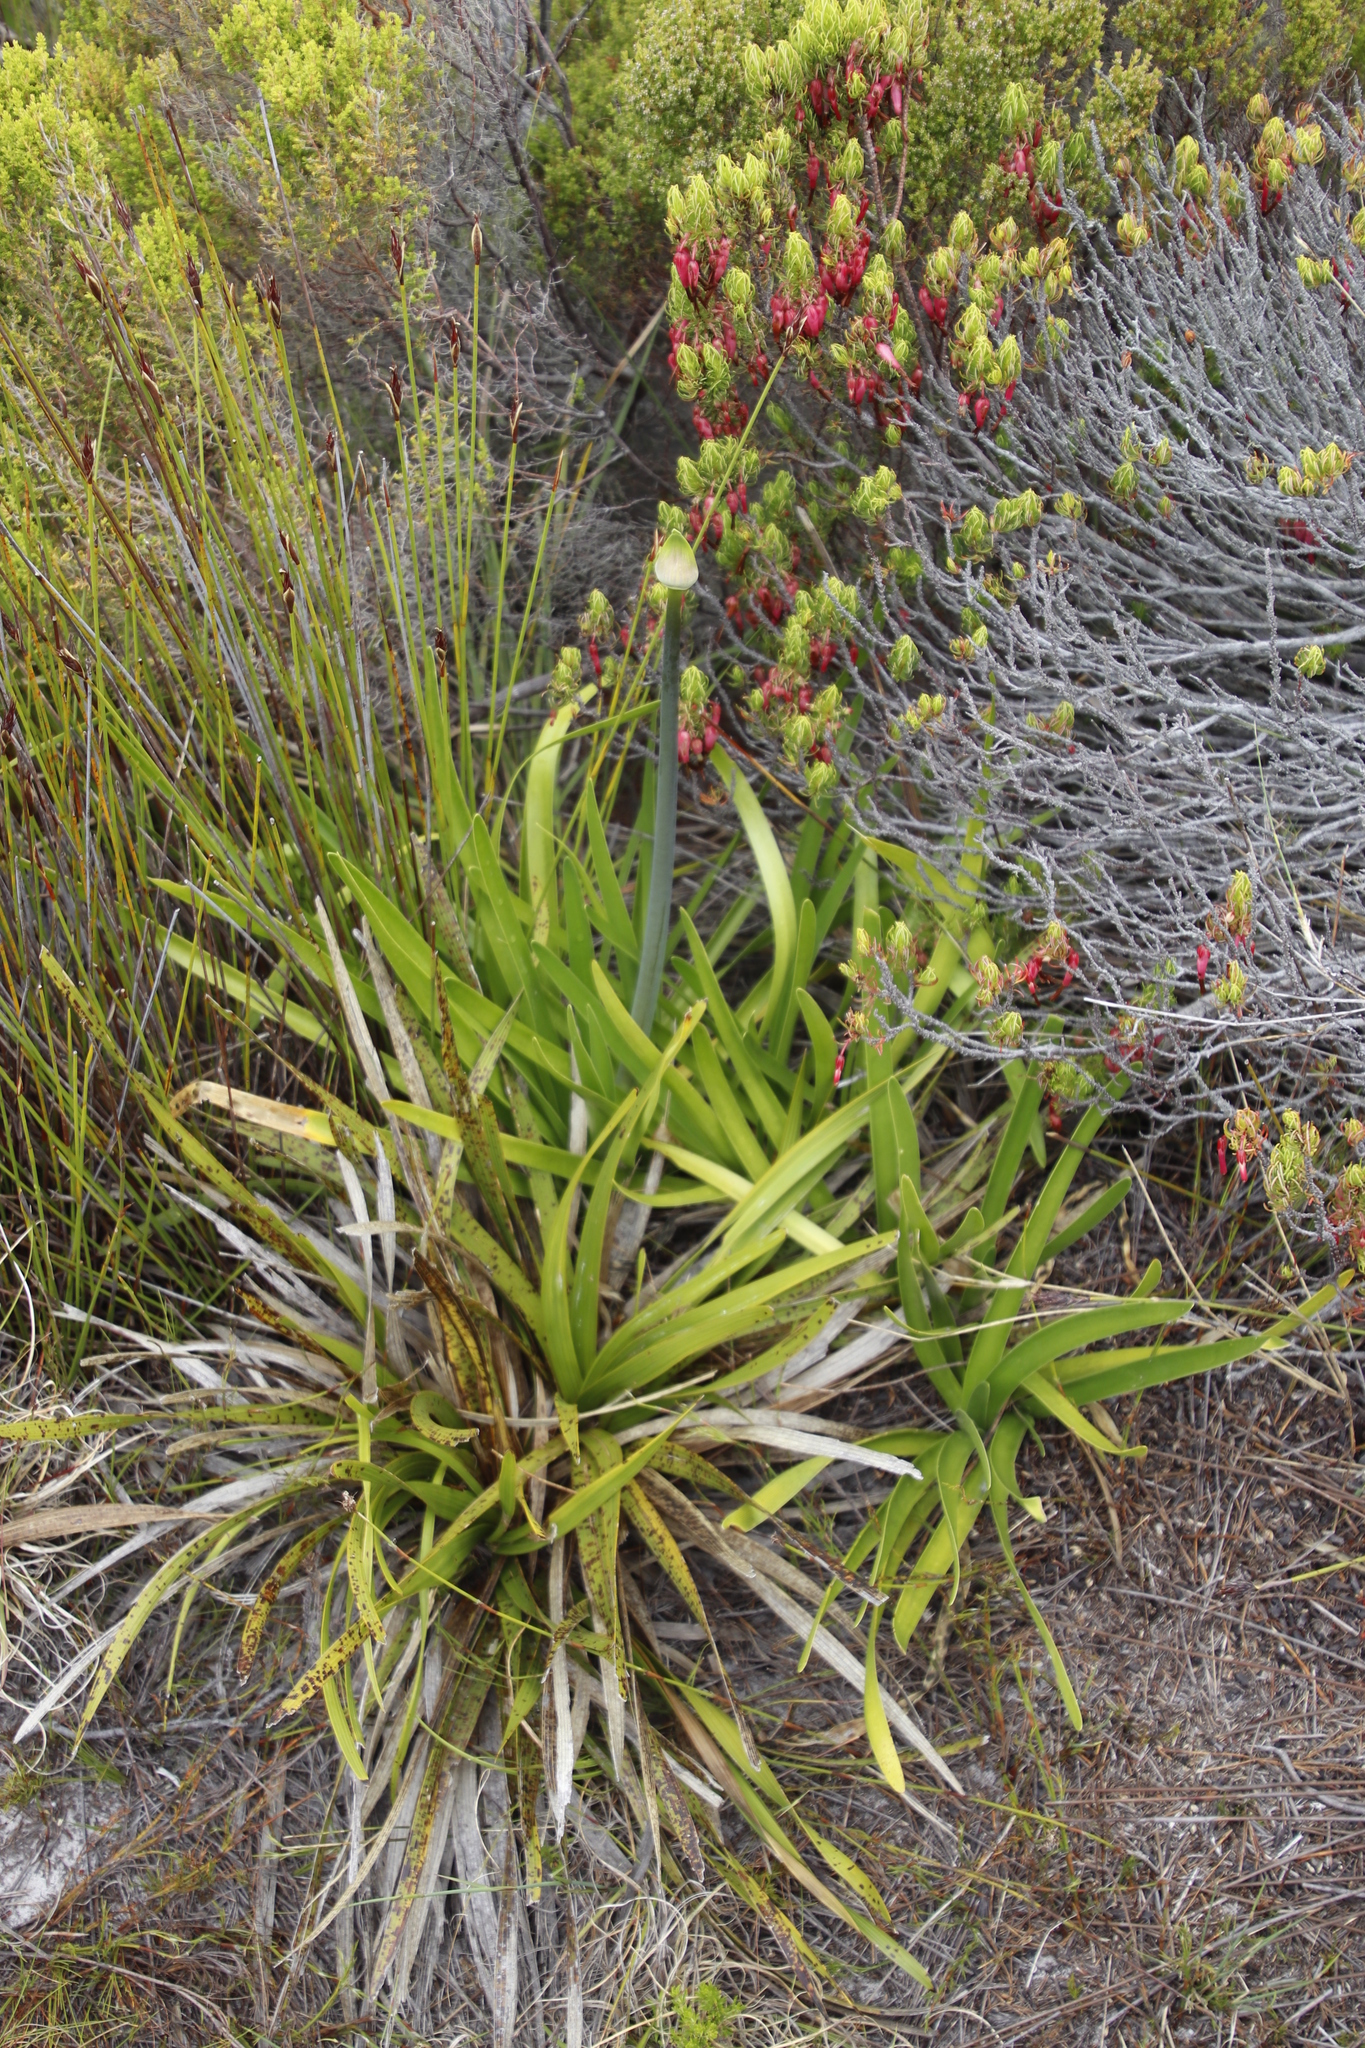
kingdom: Plantae
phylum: Tracheophyta
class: Liliopsida
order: Asparagales
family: Amaryllidaceae
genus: Agapanthus
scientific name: Agapanthus africanus
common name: Lily-of-the-nile
